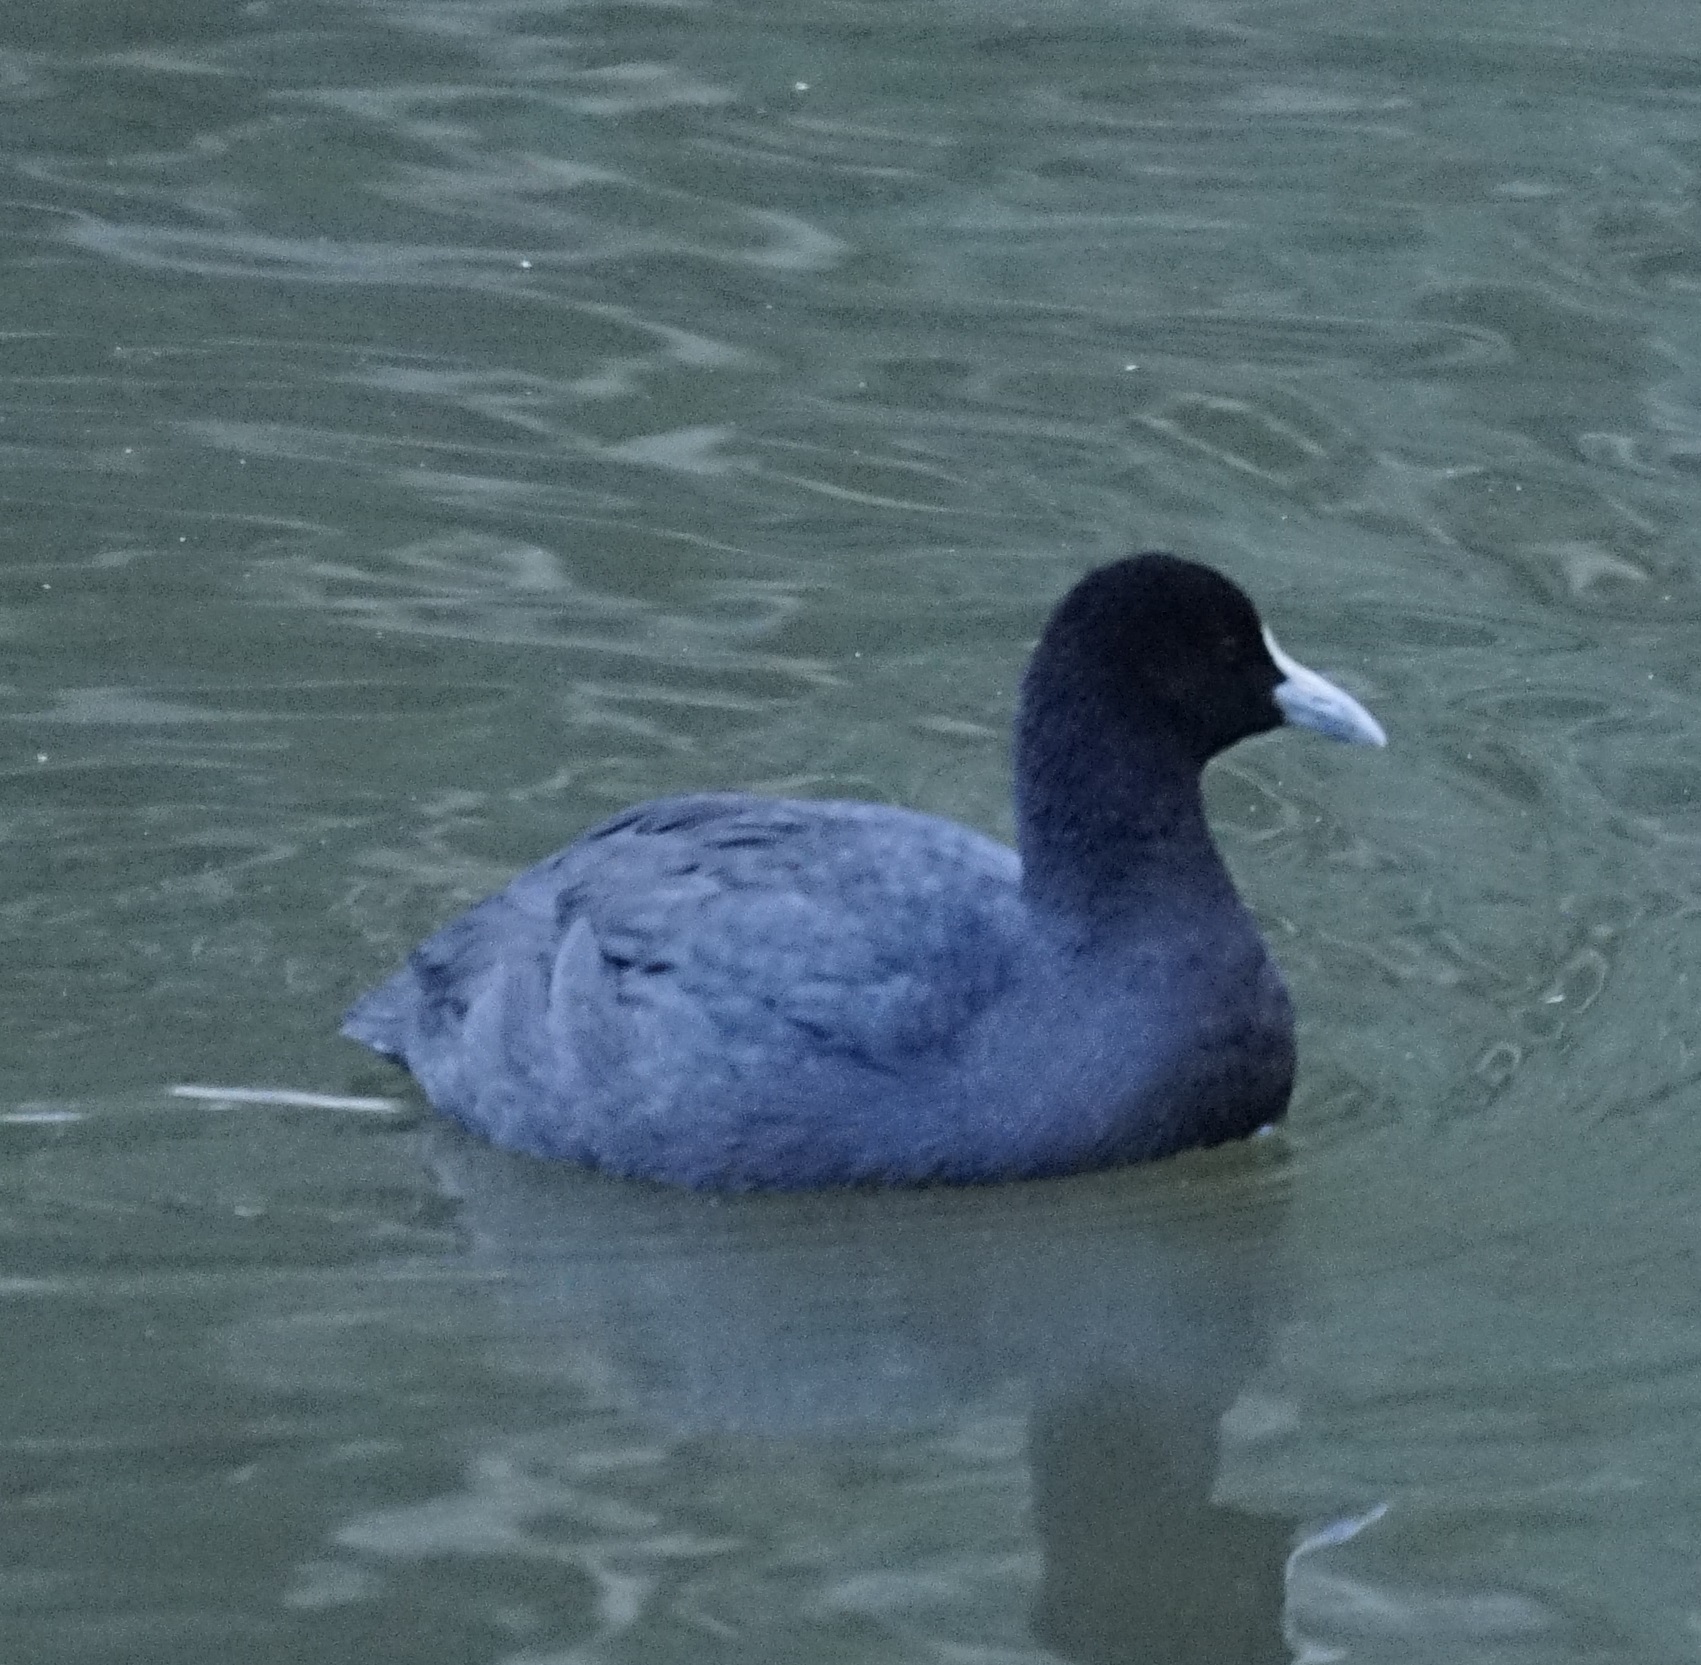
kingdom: Animalia
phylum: Chordata
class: Aves
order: Gruiformes
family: Rallidae
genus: Fulica
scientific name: Fulica atra
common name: Eurasian coot
